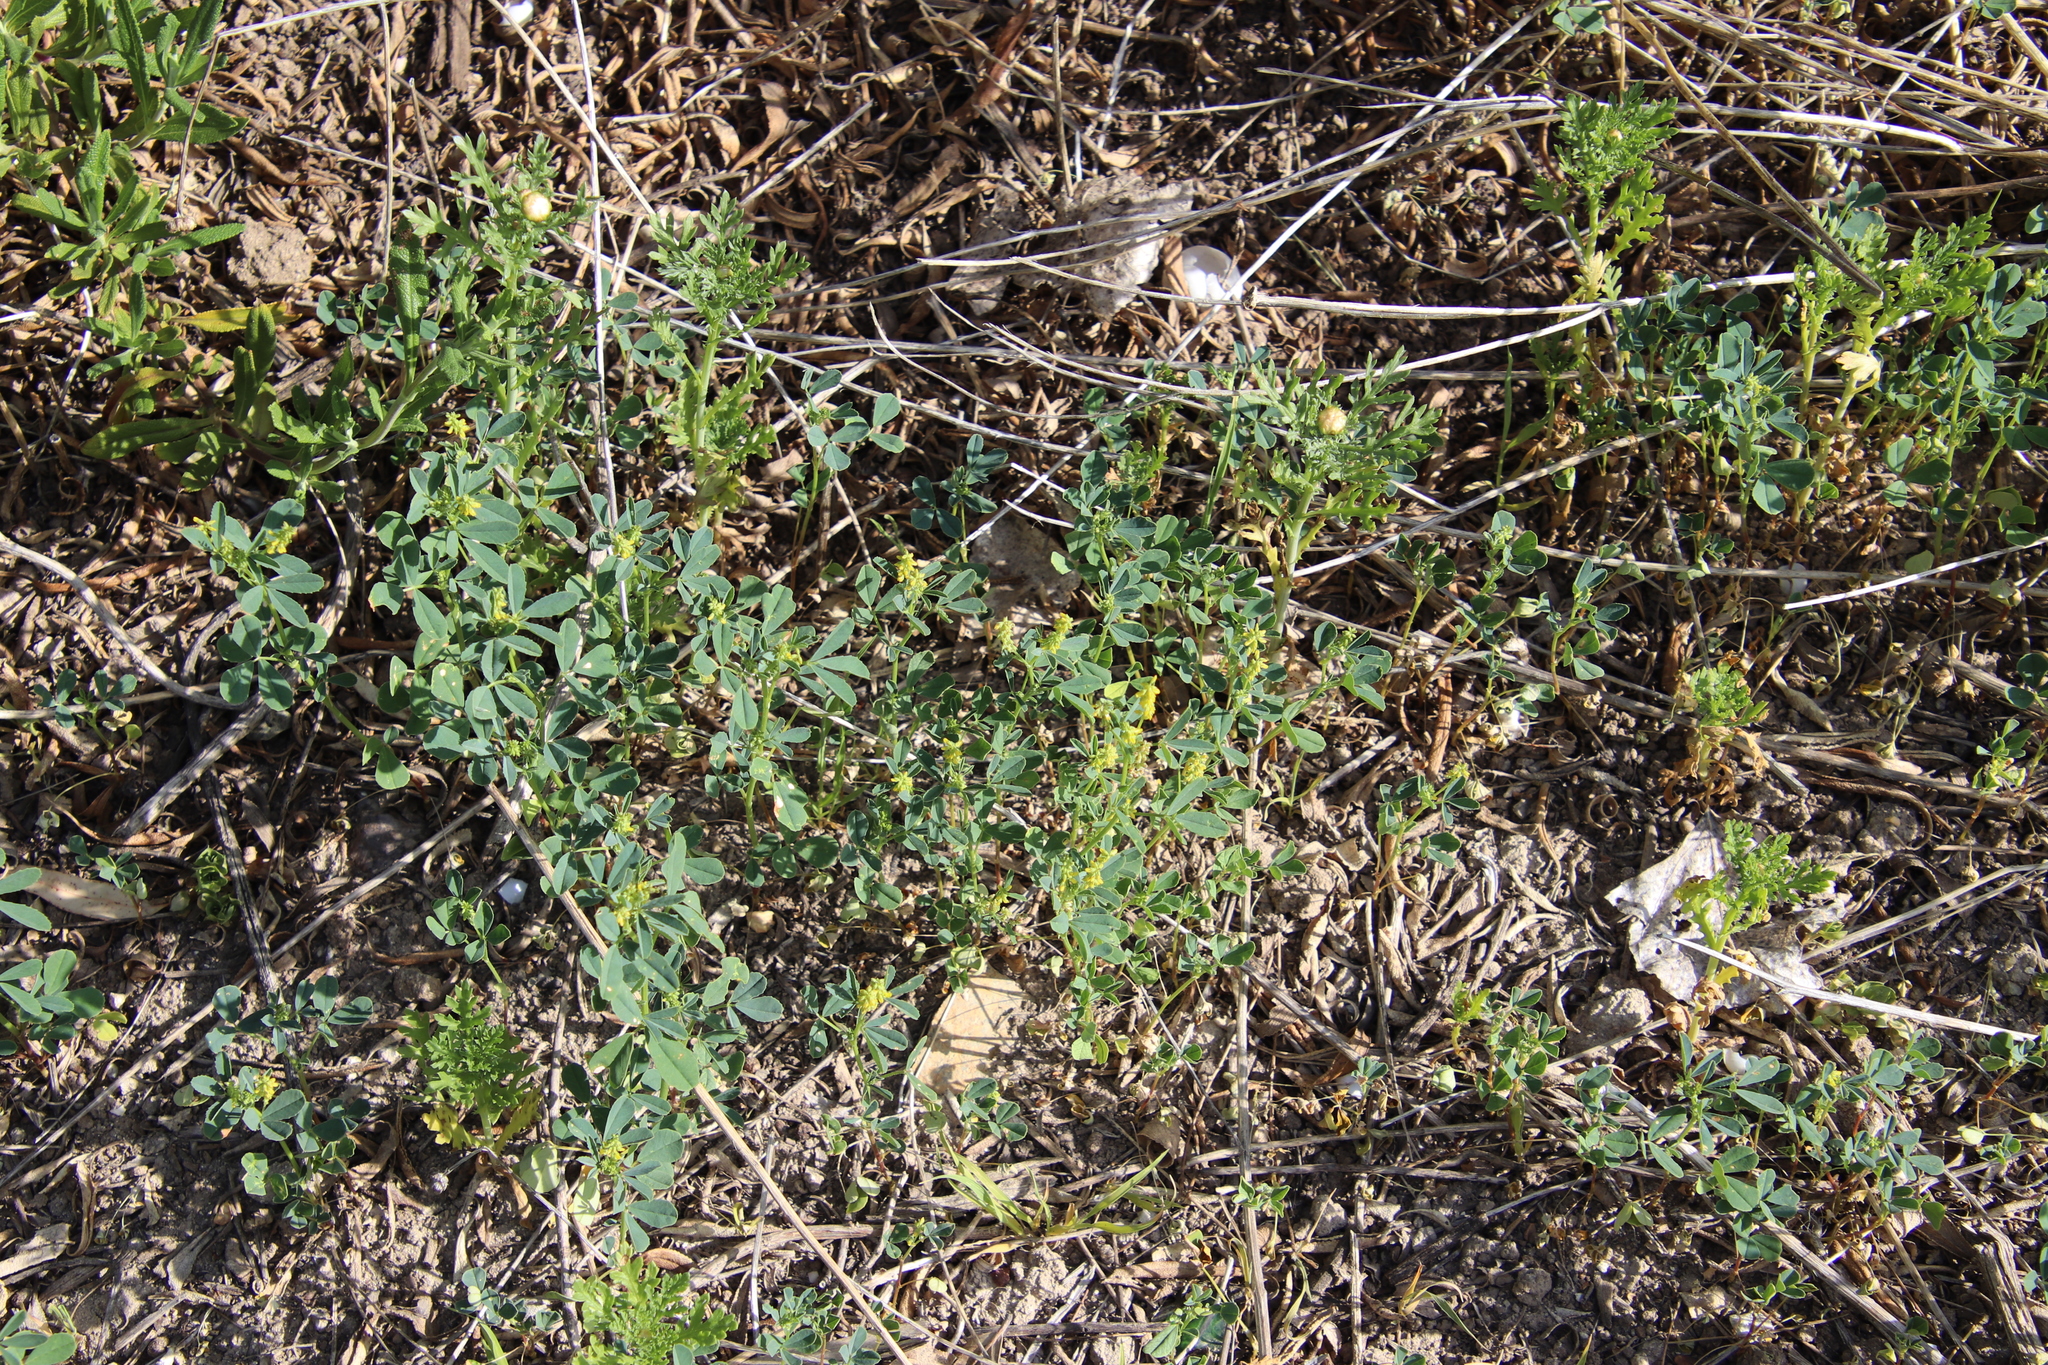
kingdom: Plantae
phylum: Tracheophyta
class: Magnoliopsida
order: Fabales
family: Fabaceae
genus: Melilotus
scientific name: Melilotus indicus
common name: Small melilot
